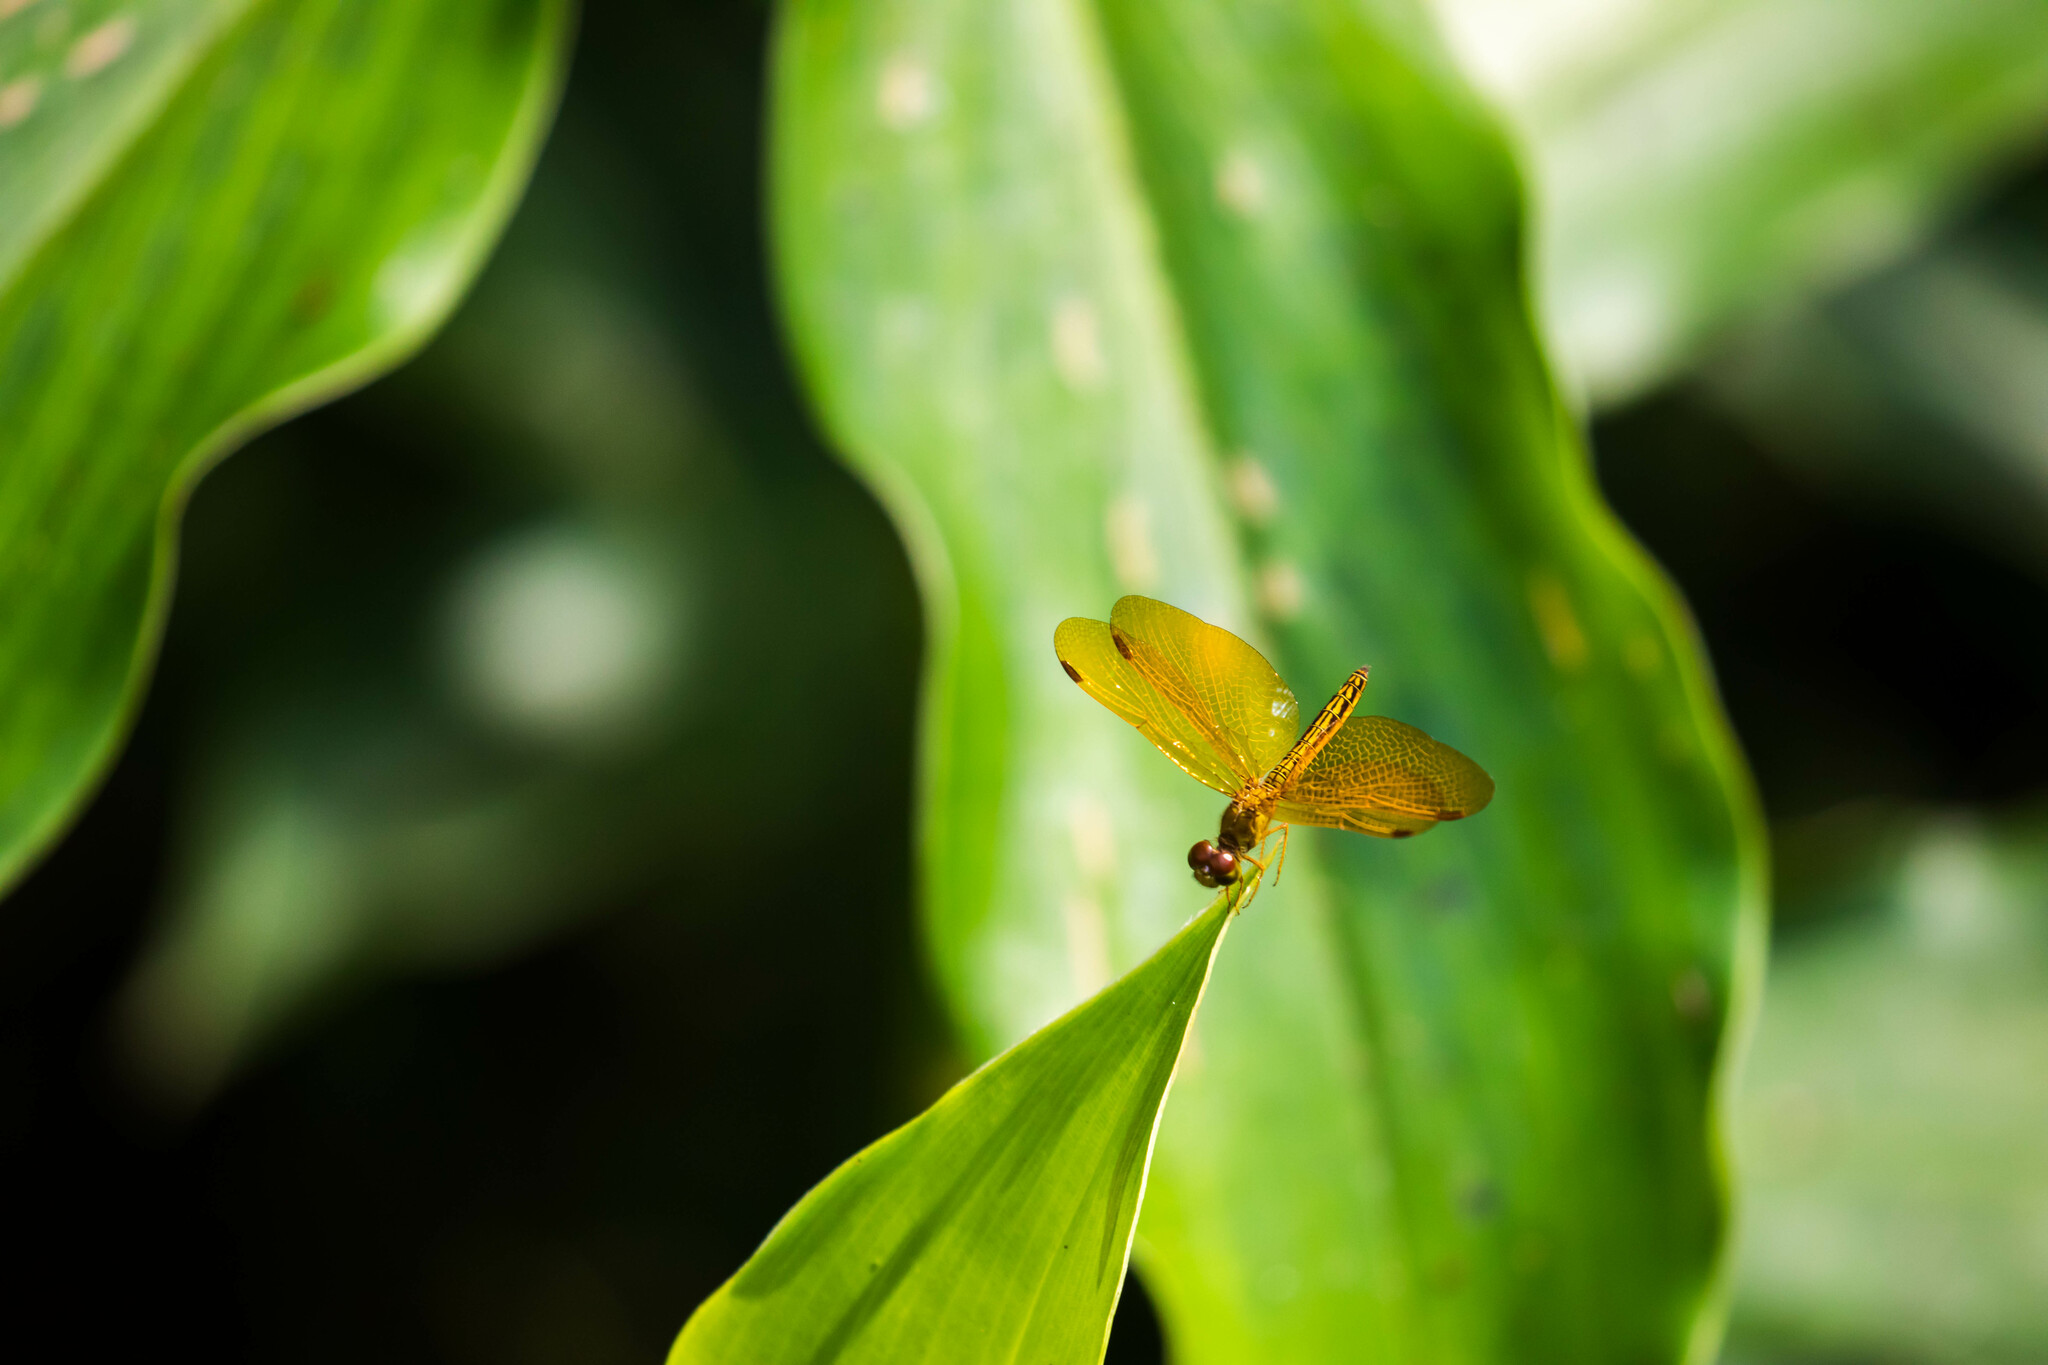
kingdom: Animalia
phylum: Arthropoda
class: Insecta
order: Odonata
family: Libellulidae
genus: Perithemis
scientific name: Perithemis electra
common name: Golden amberwing
